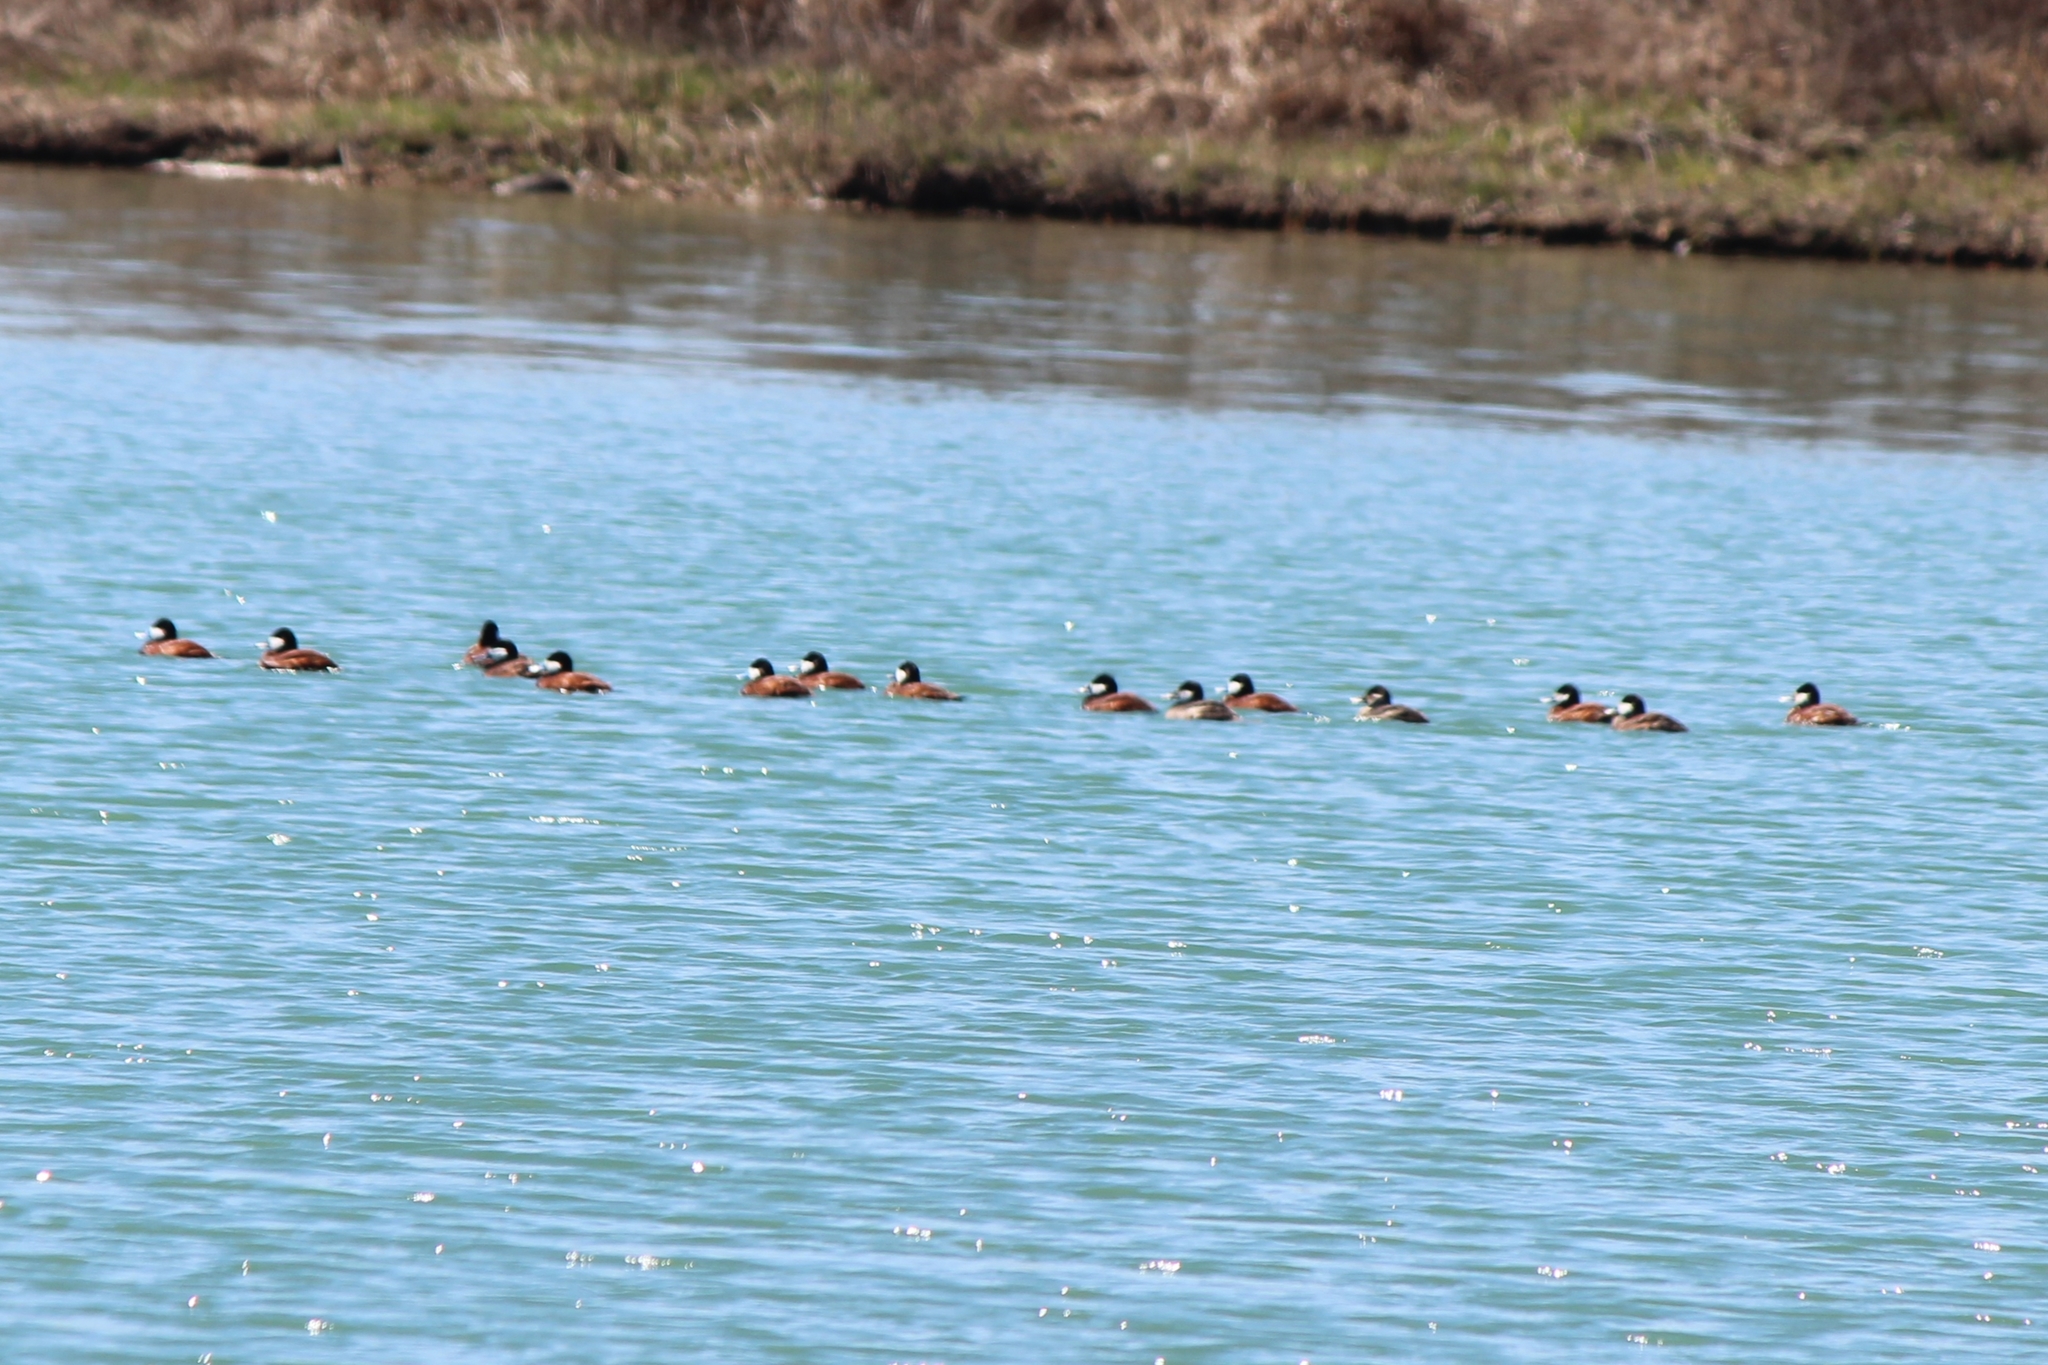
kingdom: Animalia
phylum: Chordata
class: Aves
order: Anseriformes
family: Anatidae
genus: Oxyura
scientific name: Oxyura jamaicensis
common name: Ruddy duck
